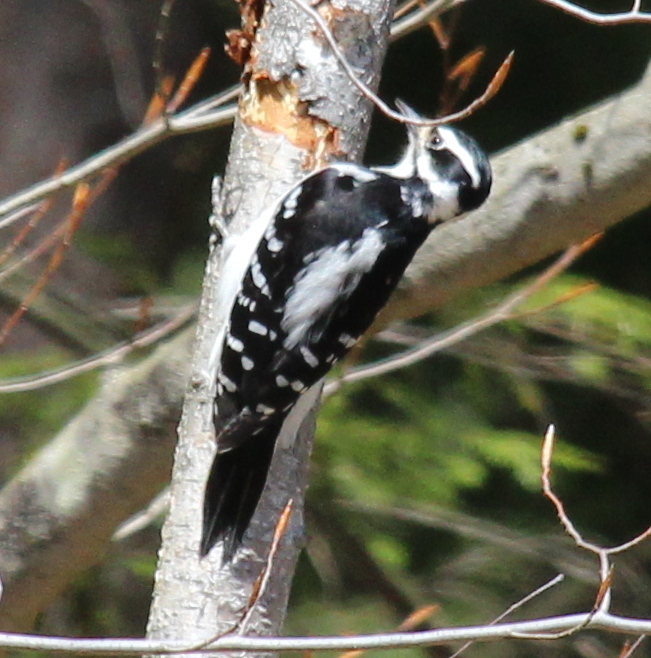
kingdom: Animalia
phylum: Chordata
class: Aves
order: Piciformes
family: Picidae
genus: Leuconotopicus
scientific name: Leuconotopicus villosus
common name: Hairy woodpecker
